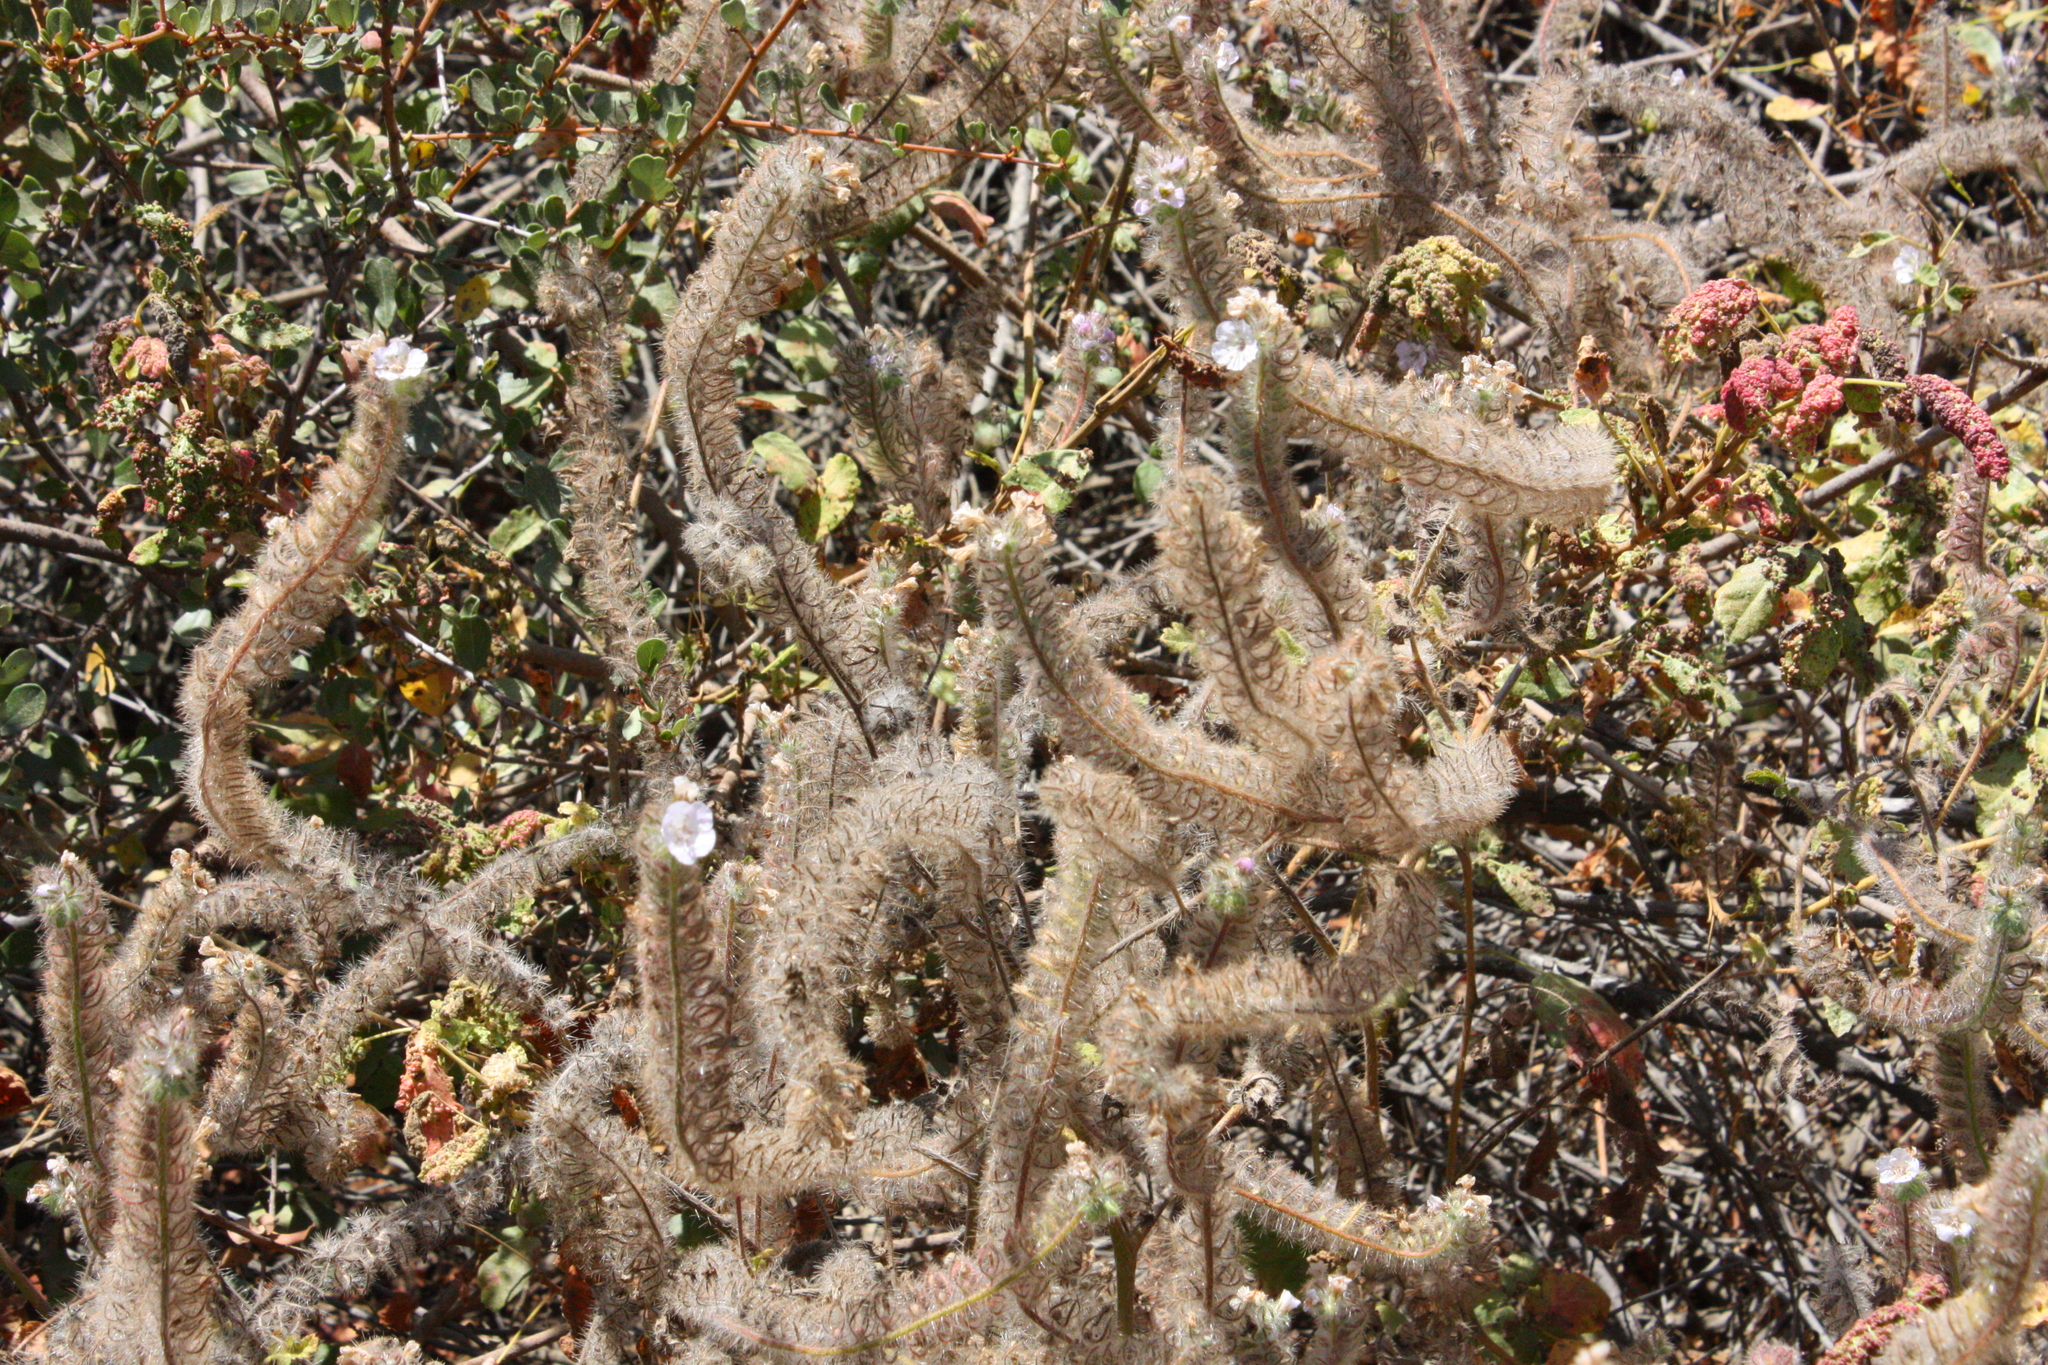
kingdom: Plantae
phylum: Tracheophyta
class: Magnoliopsida
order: Boraginales
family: Hydrophyllaceae
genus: Phacelia
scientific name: Phacelia
